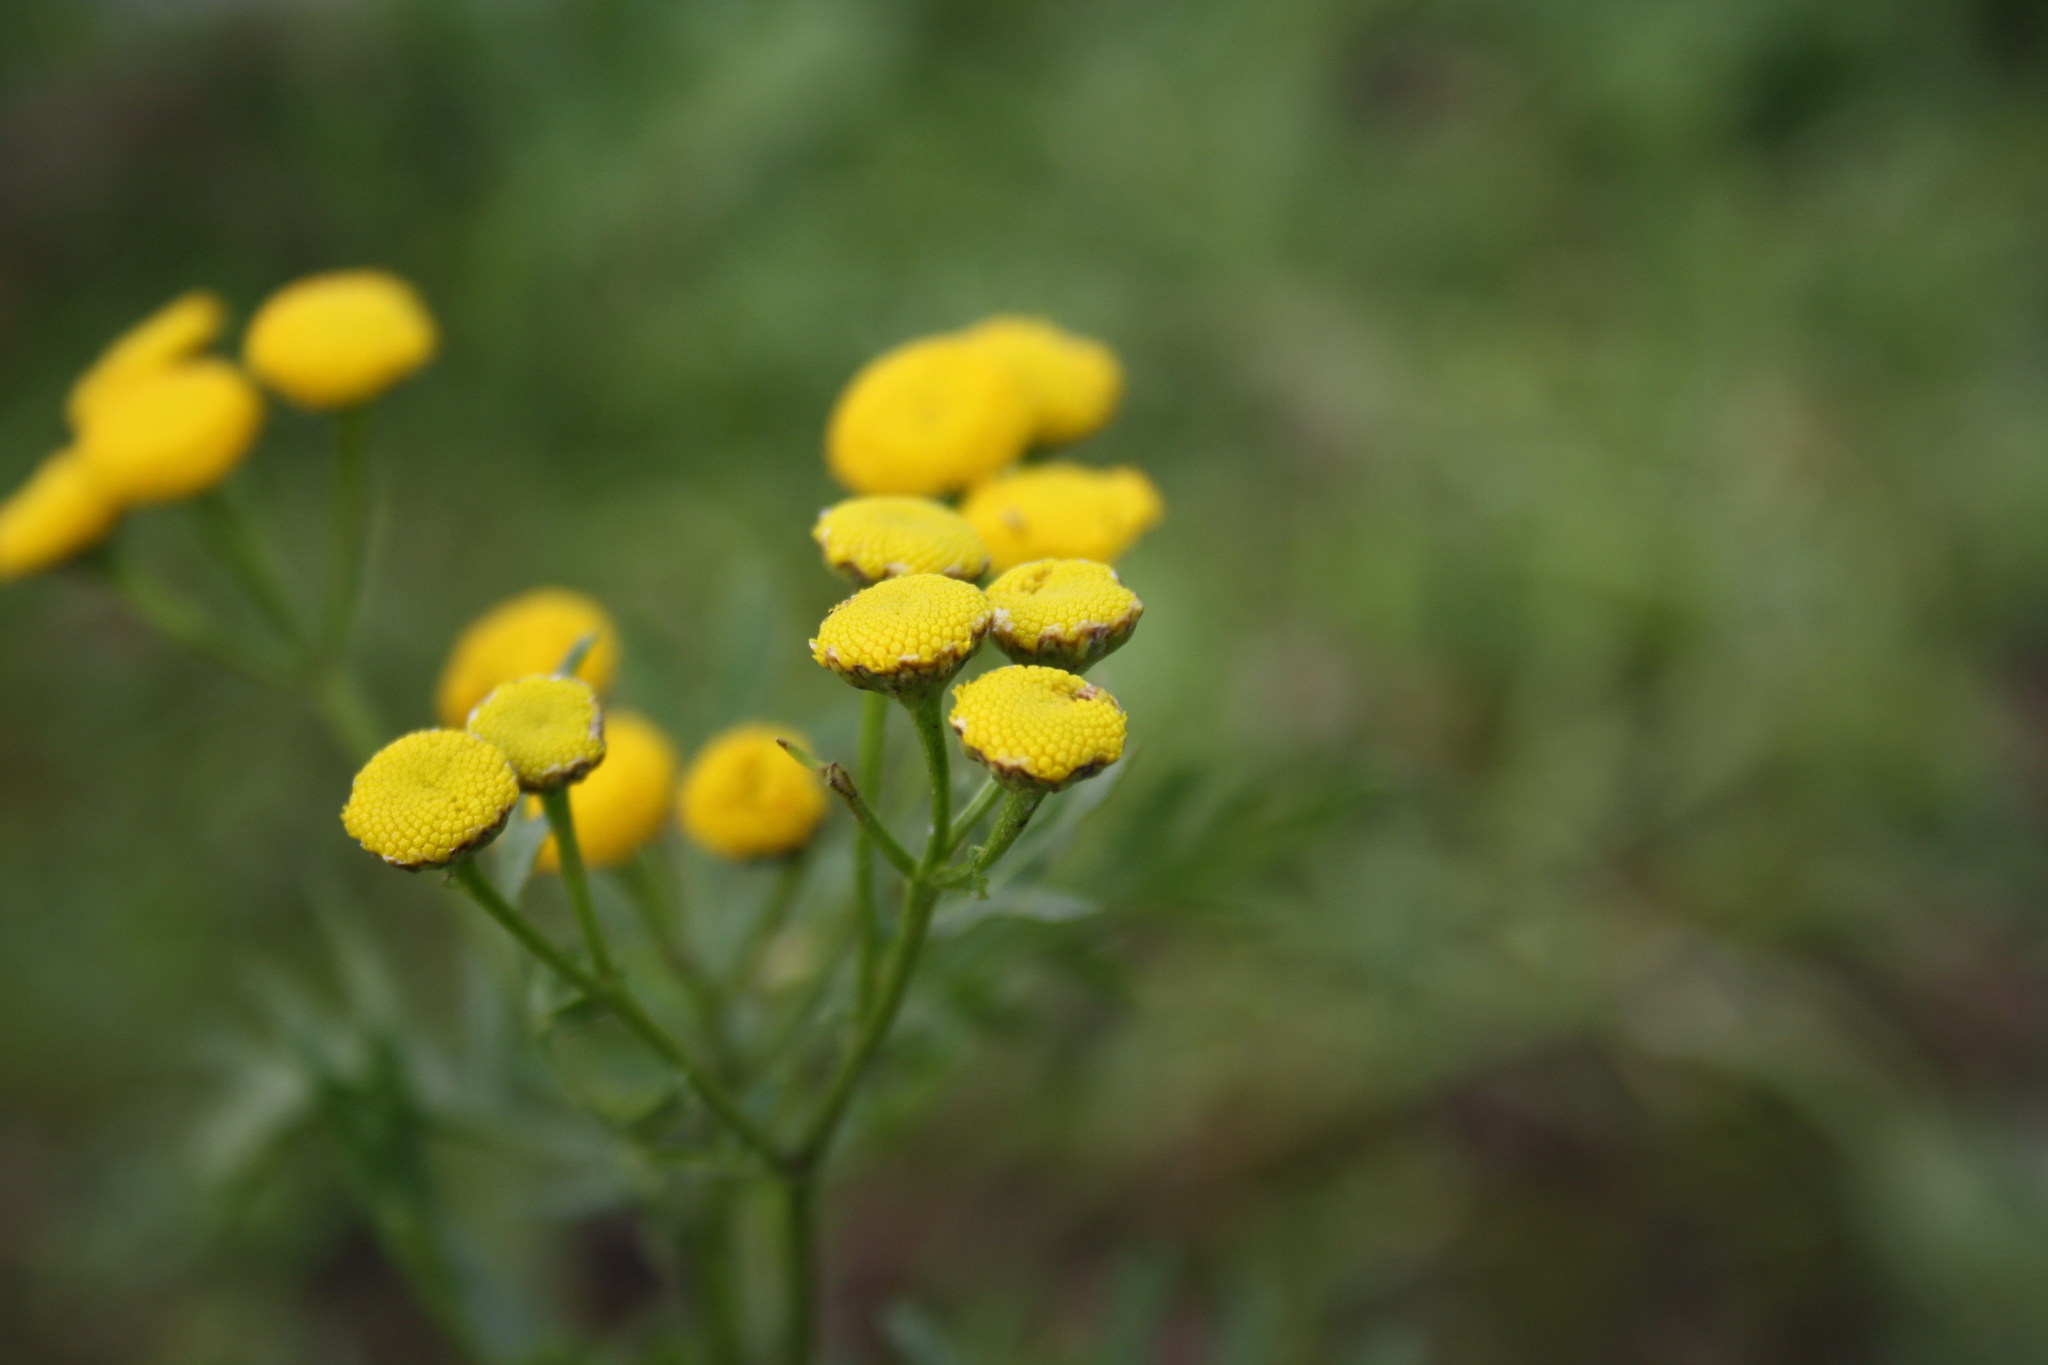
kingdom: Plantae
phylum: Tracheophyta
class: Magnoliopsida
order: Asterales
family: Asteraceae
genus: Tanacetum
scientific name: Tanacetum vulgare
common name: Common tansy
